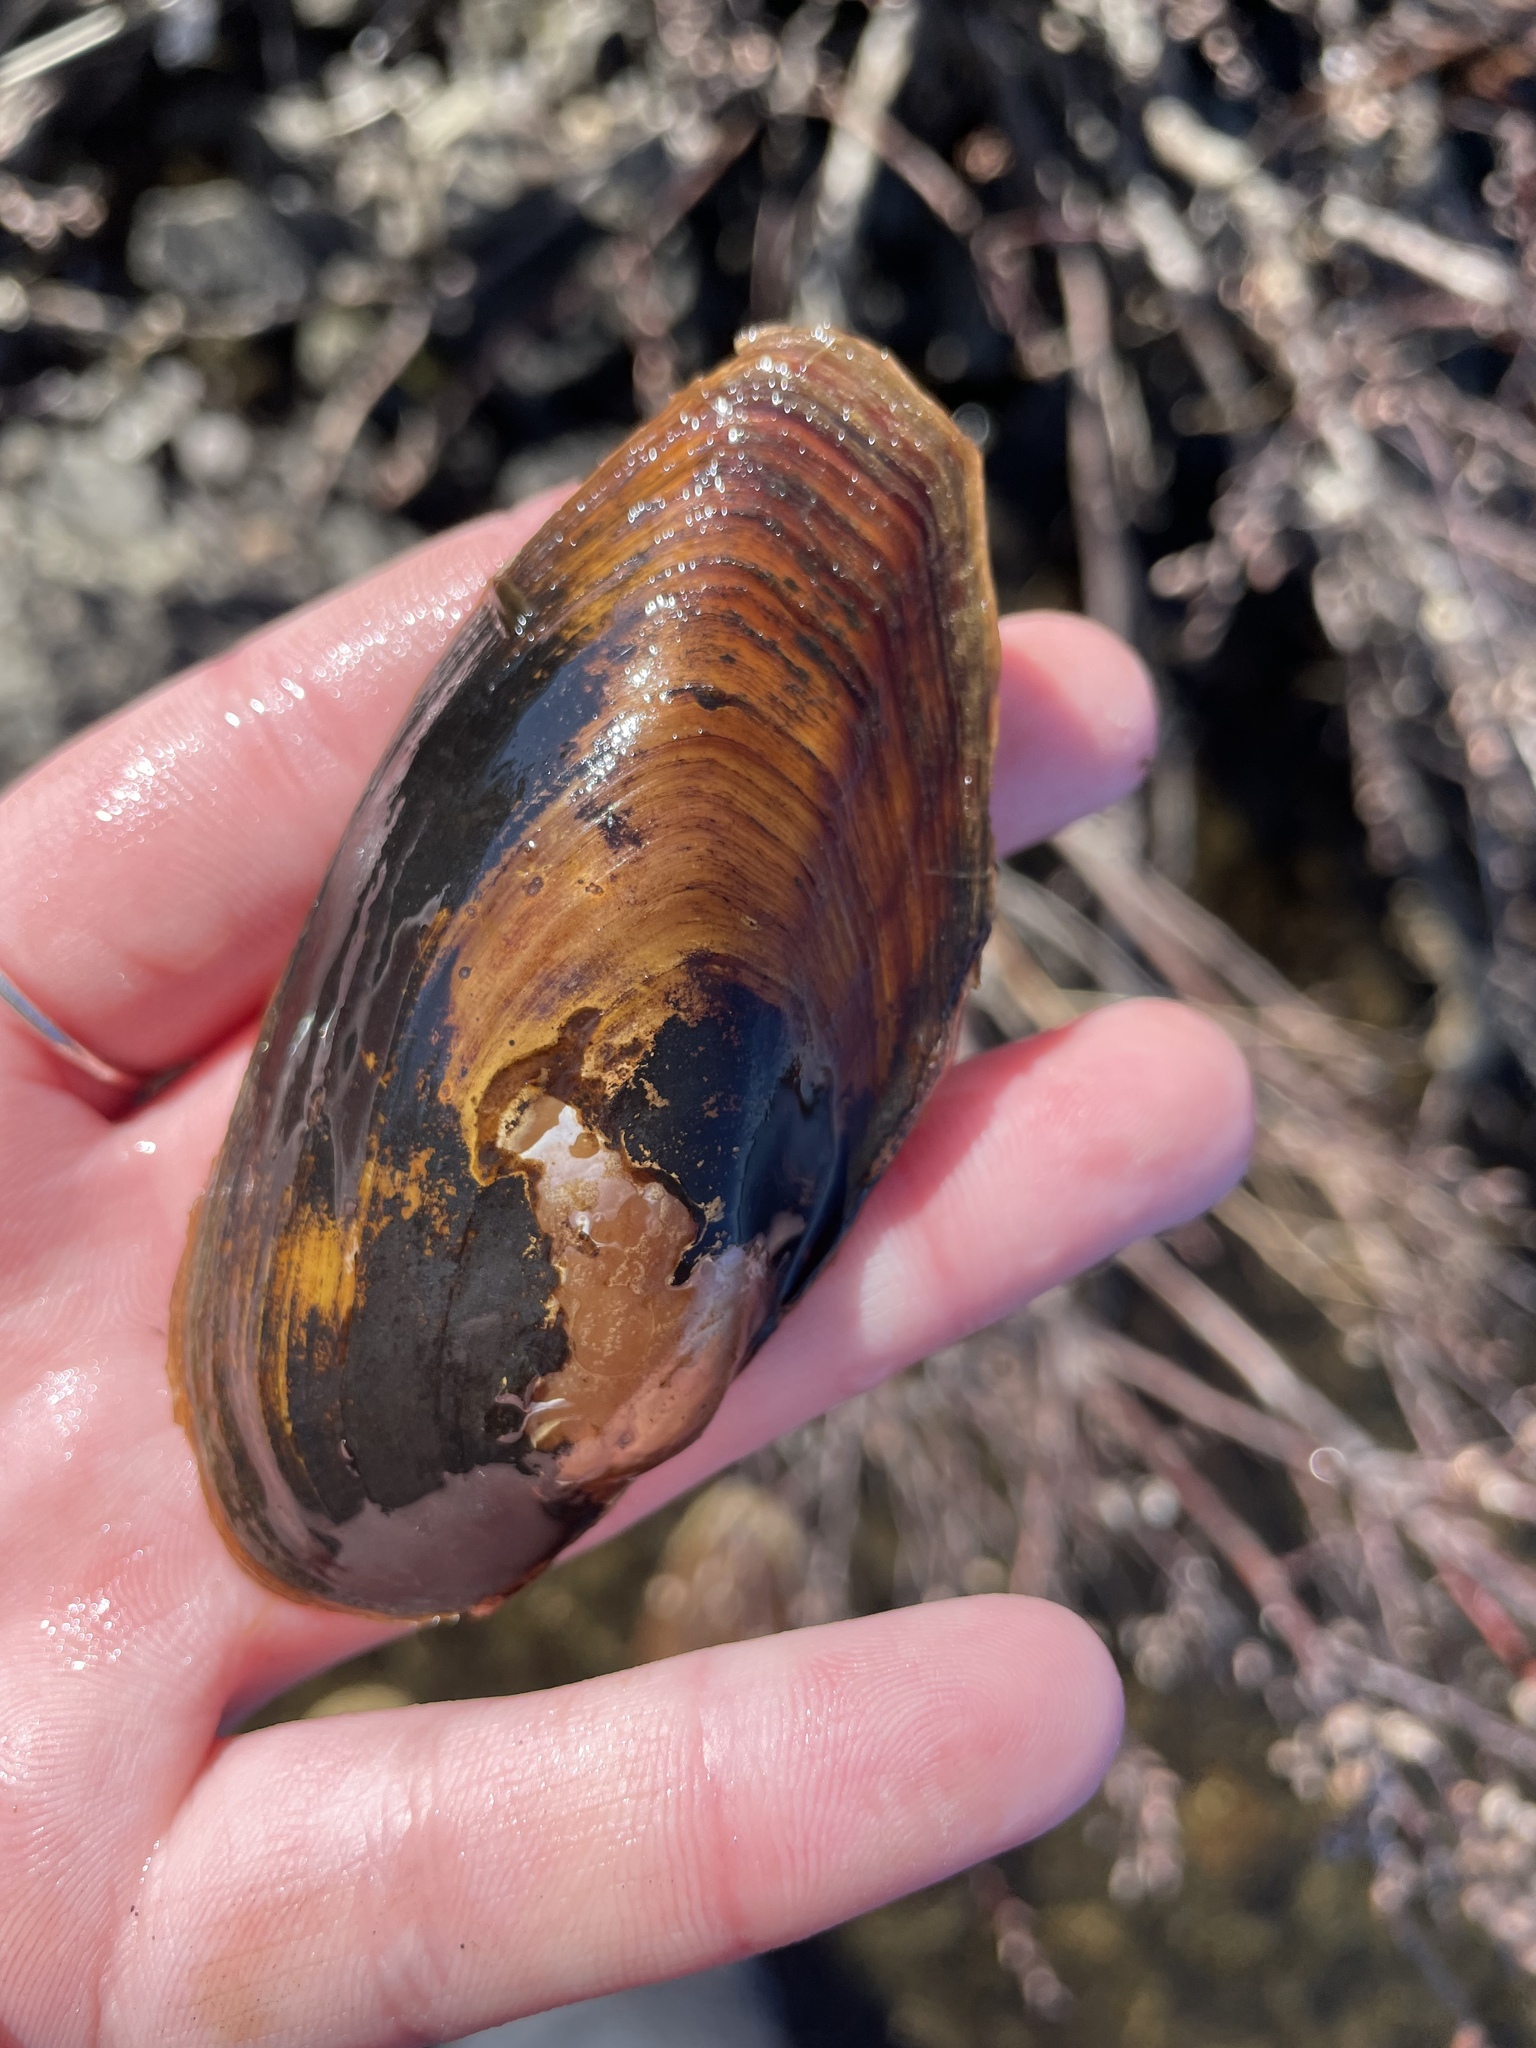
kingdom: Animalia
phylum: Mollusca
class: Bivalvia
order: Unionida
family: Unionidae
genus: Utterbackiana
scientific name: Utterbackiana implicata
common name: Alewife floater
